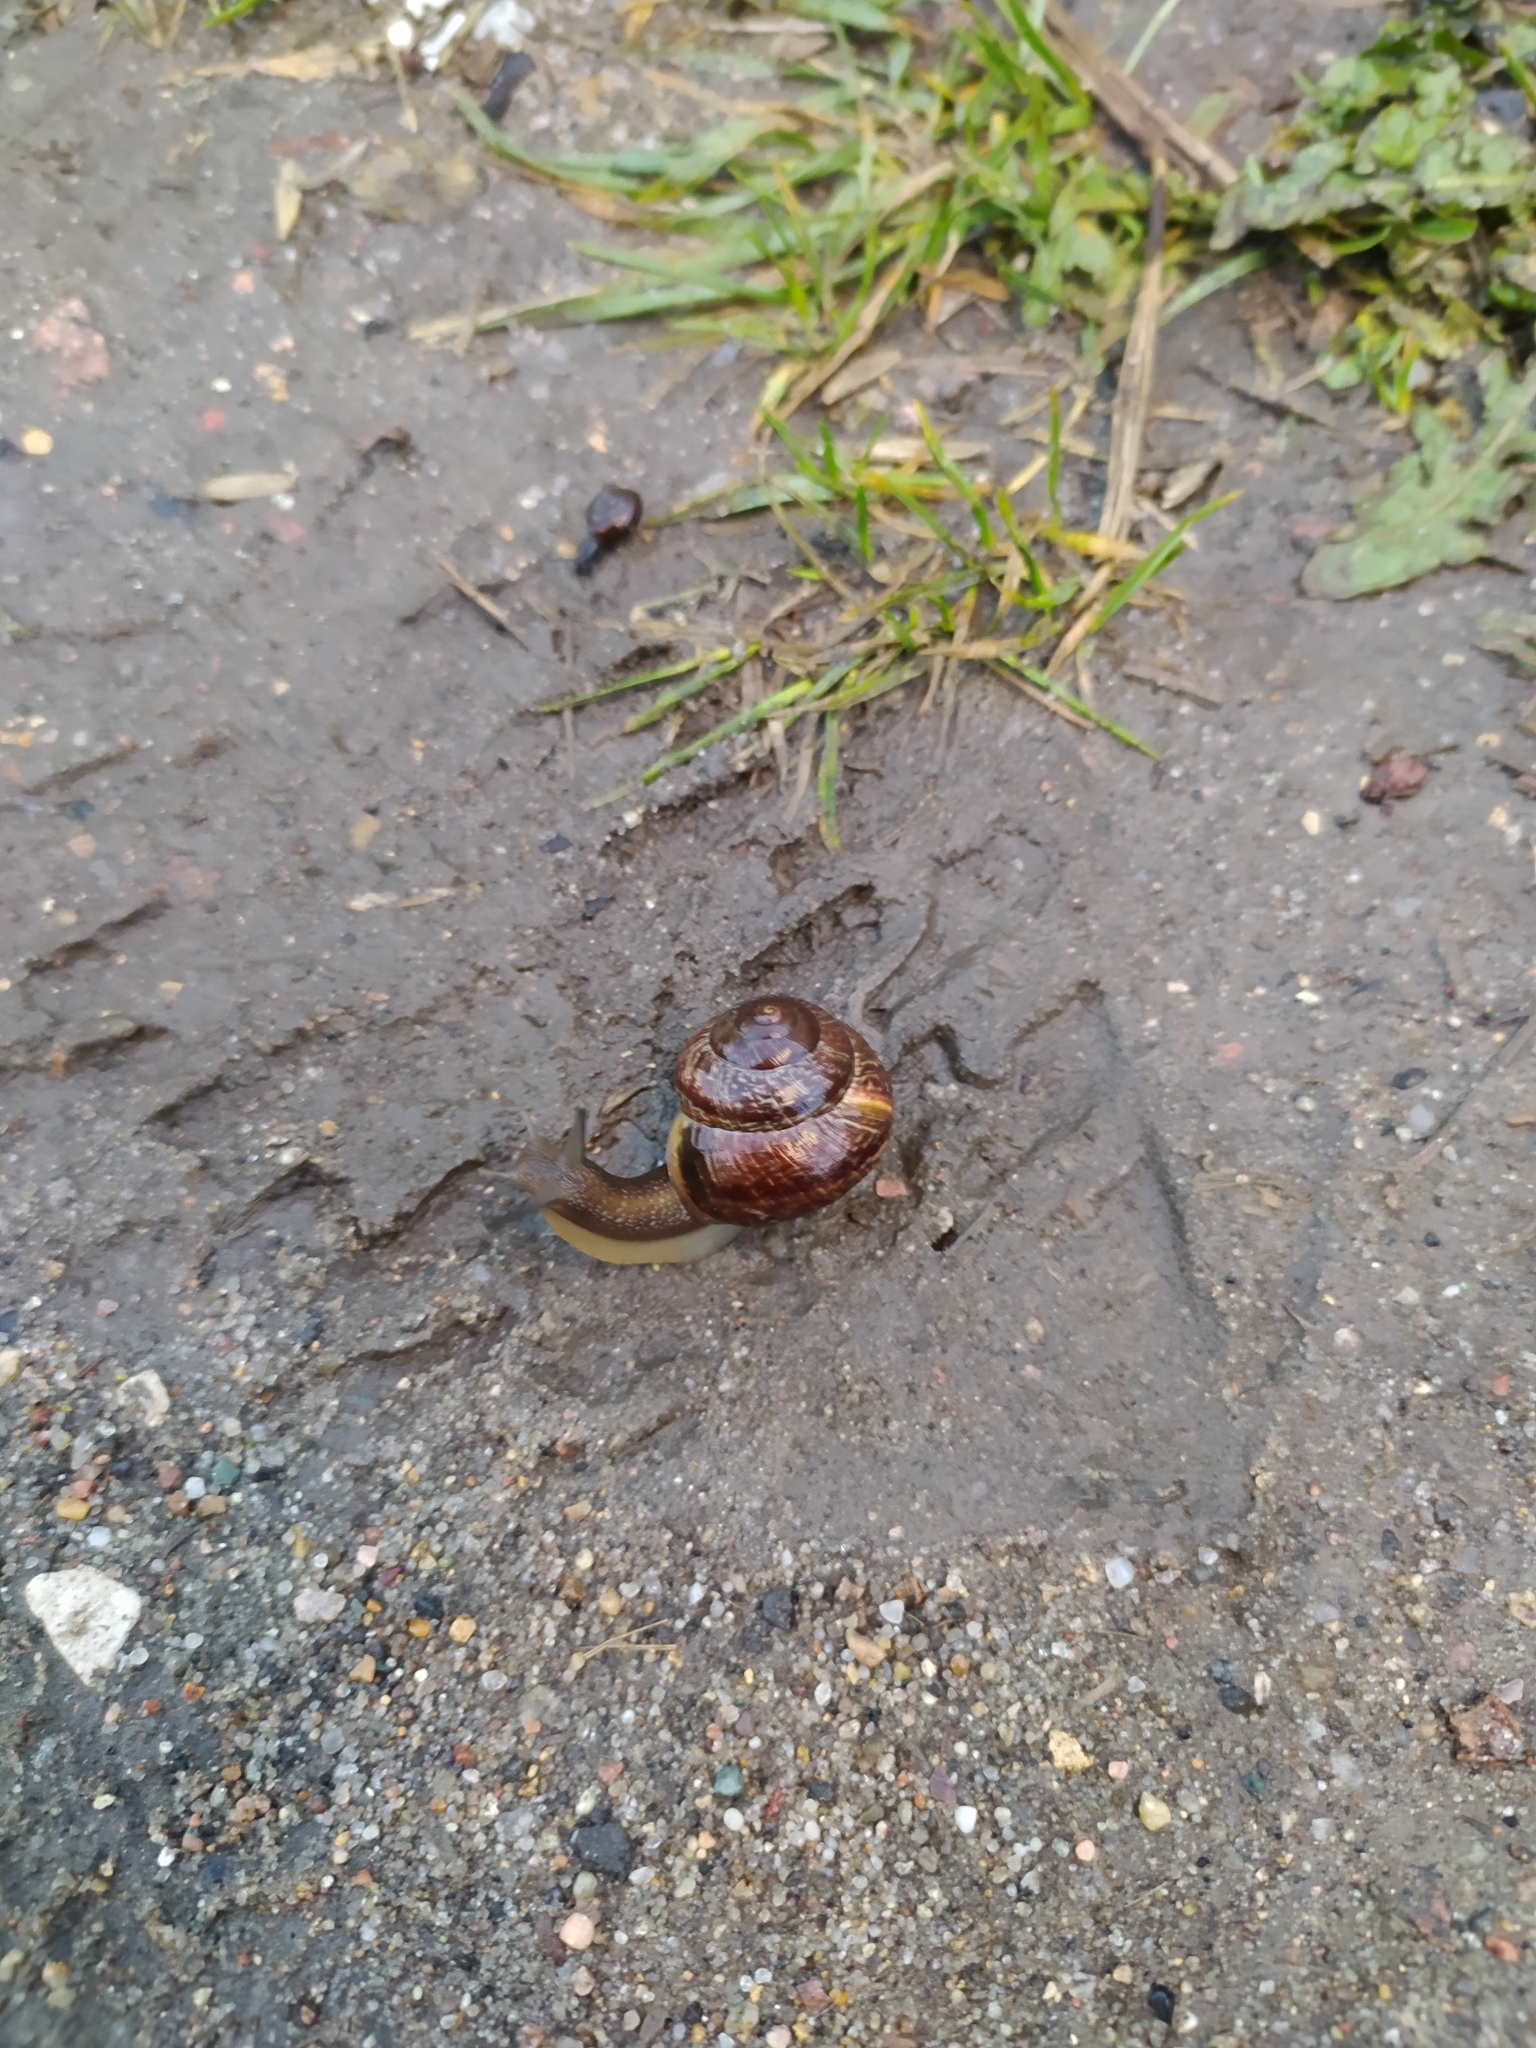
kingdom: Animalia
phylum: Mollusca
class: Gastropoda
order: Stylommatophora
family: Helicidae
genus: Arianta
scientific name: Arianta arbustorum
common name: Copse snail
